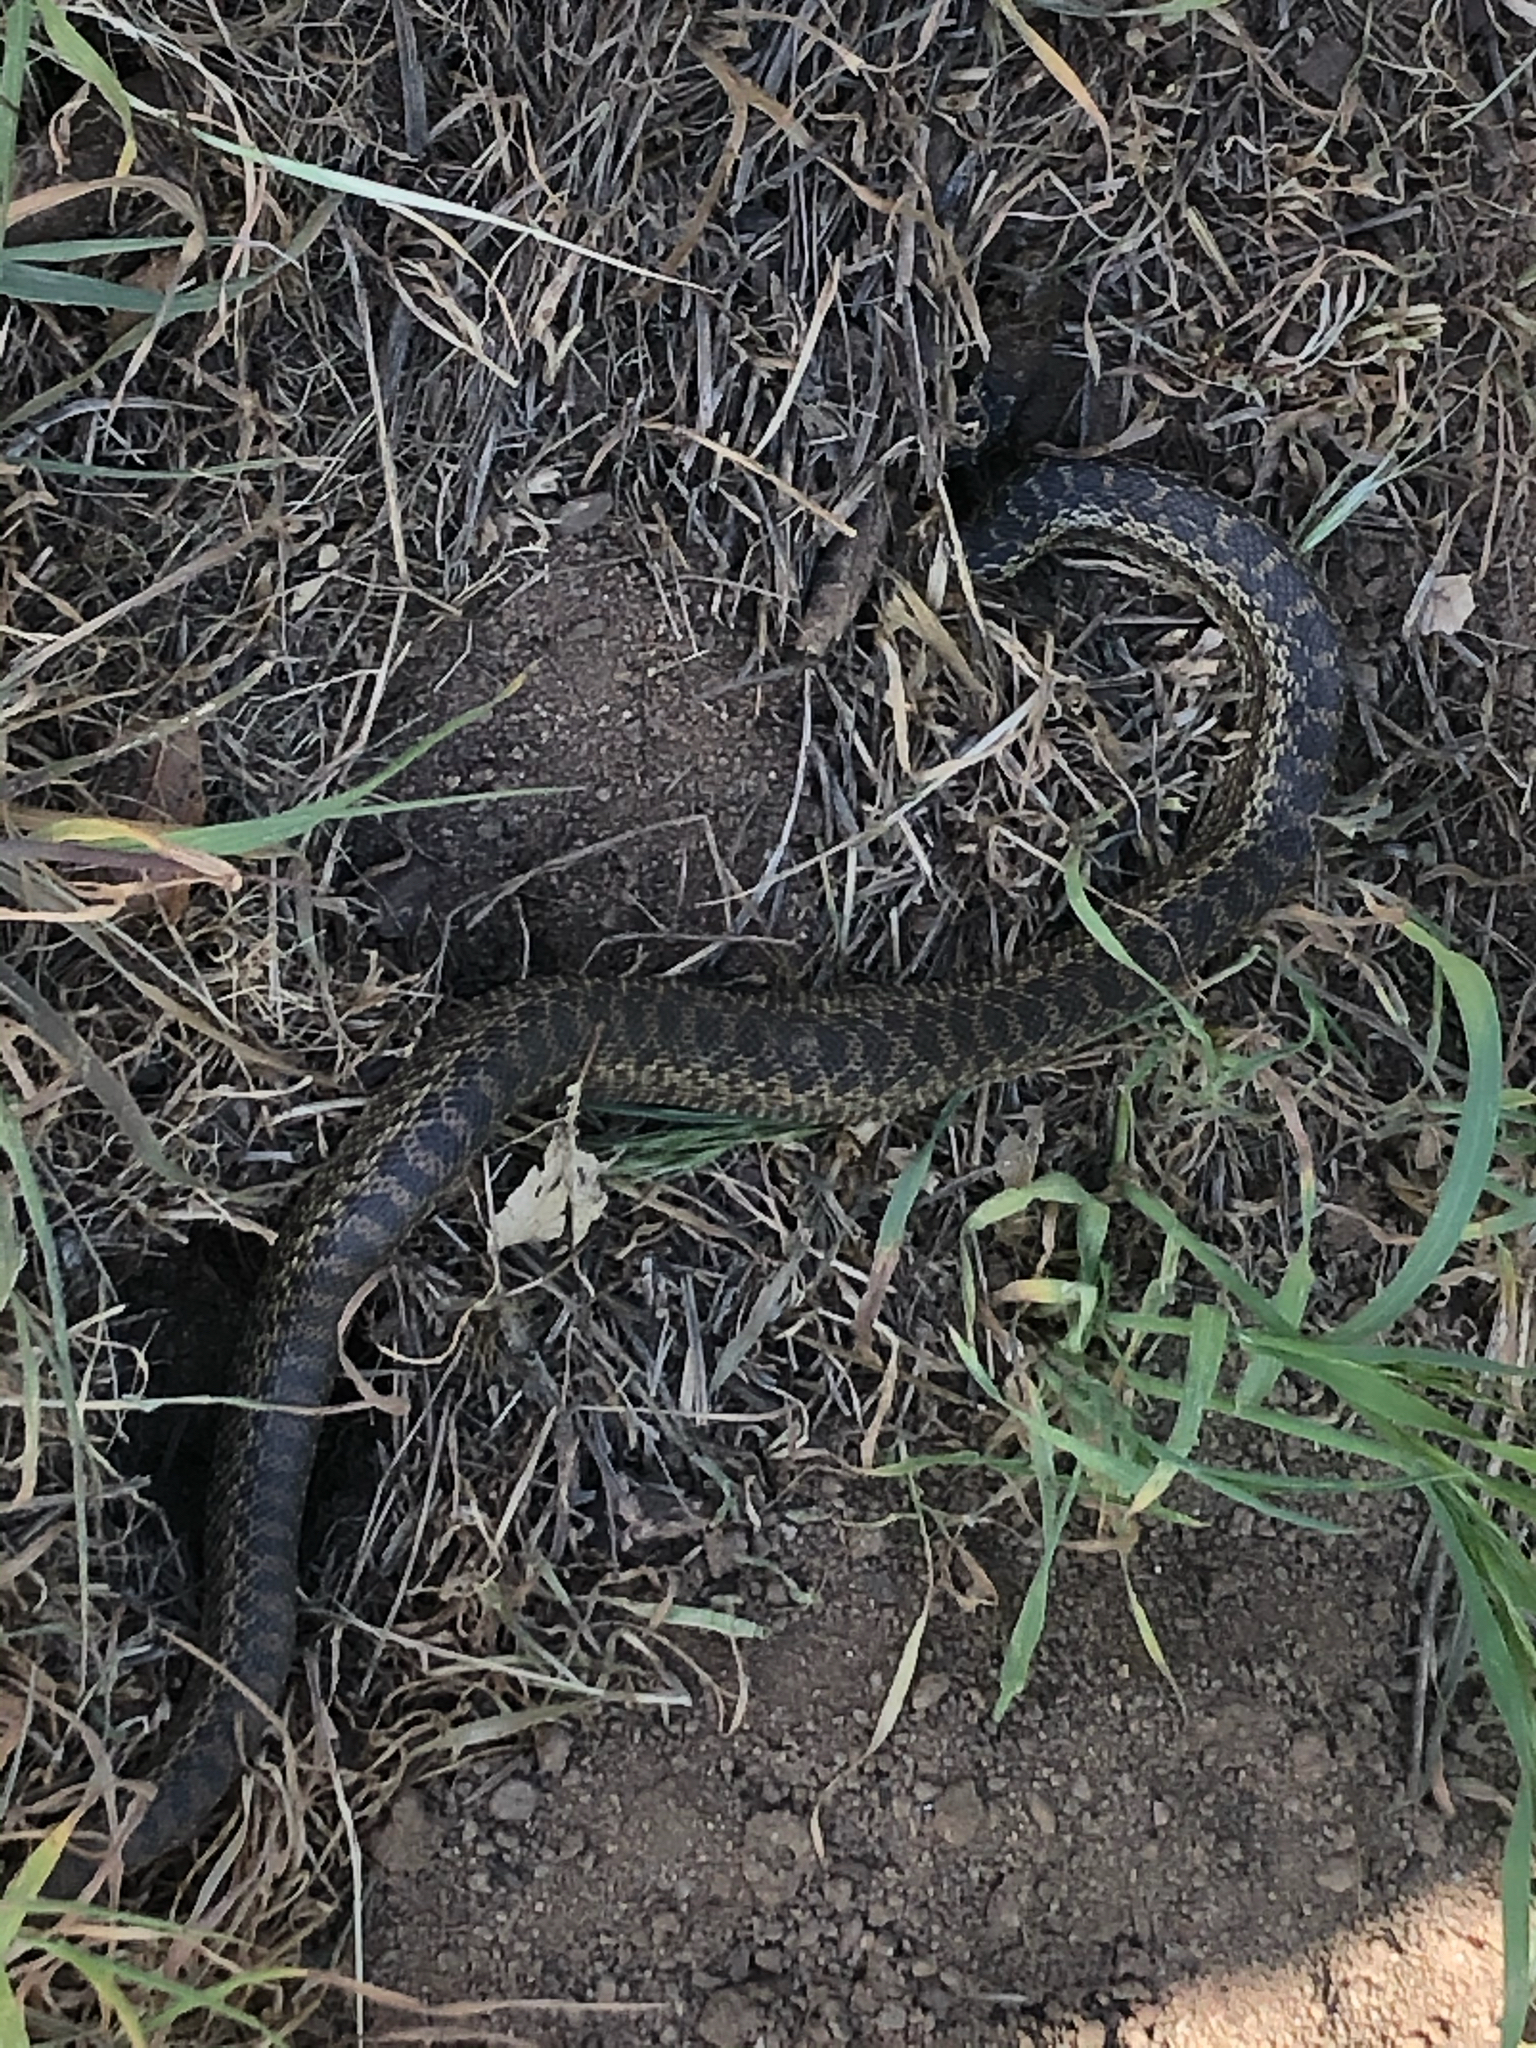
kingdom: Animalia
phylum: Chordata
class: Squamata
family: Colubridae
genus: Pituophis
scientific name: Pituophis catenifer
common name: Gopher snake
